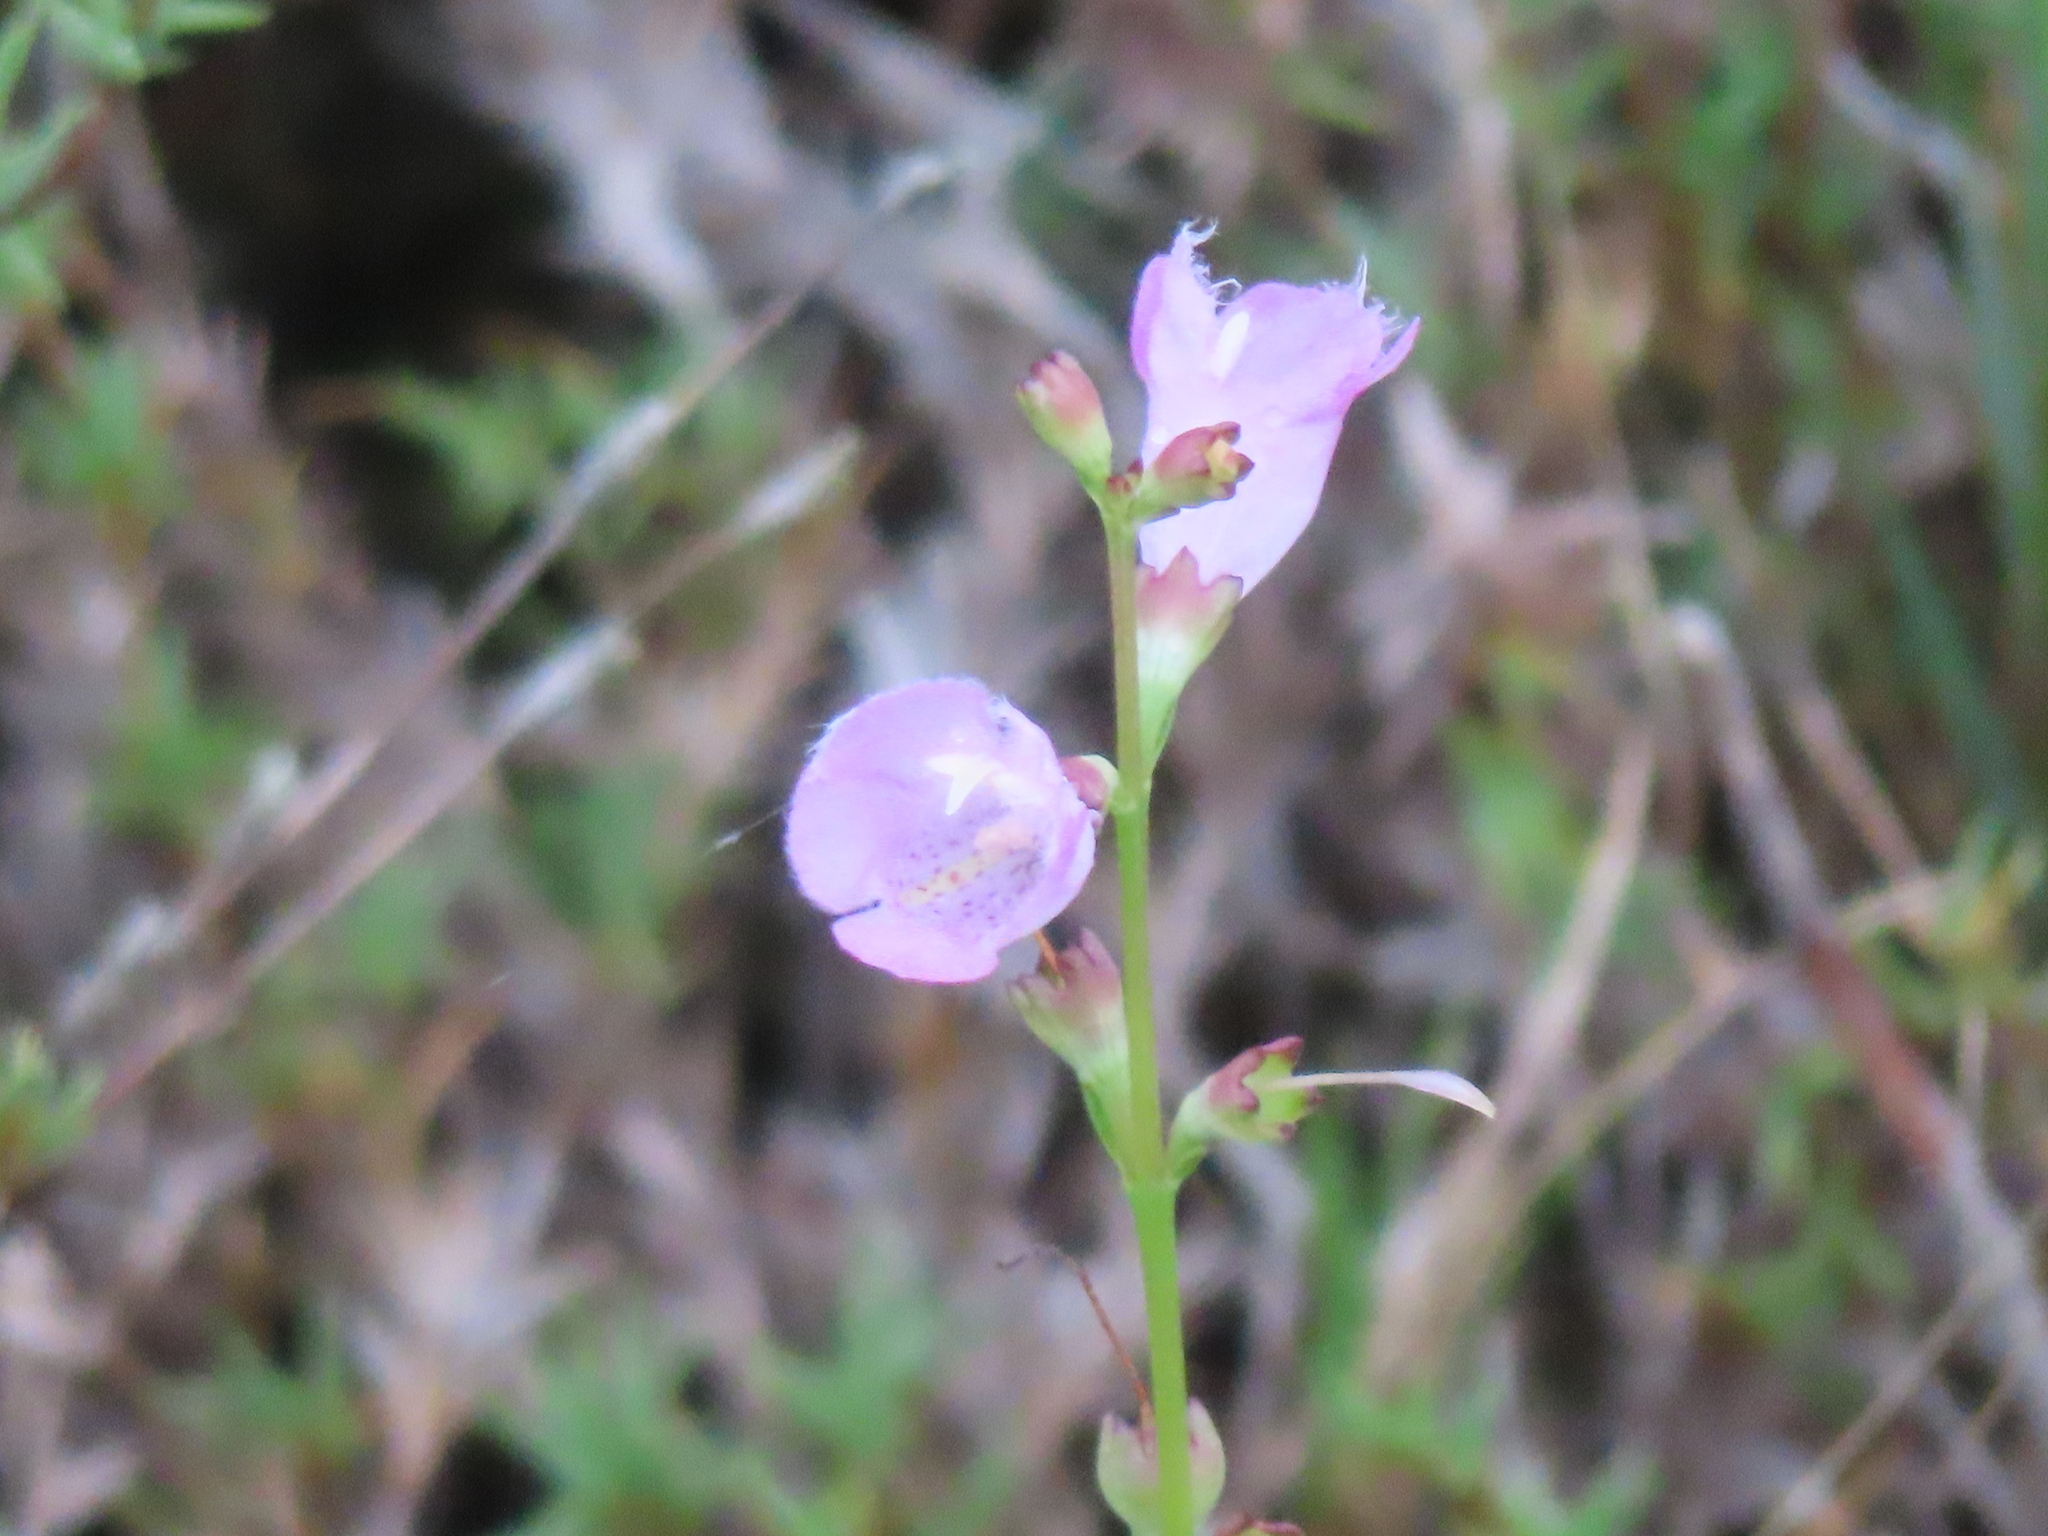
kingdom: Plantae
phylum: Tracheophyta
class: Magnoliopsida
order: Lamiales
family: Orobanchaceae
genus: Agalinis
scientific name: Agalinis maritima
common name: Saltmarsh agalinis
